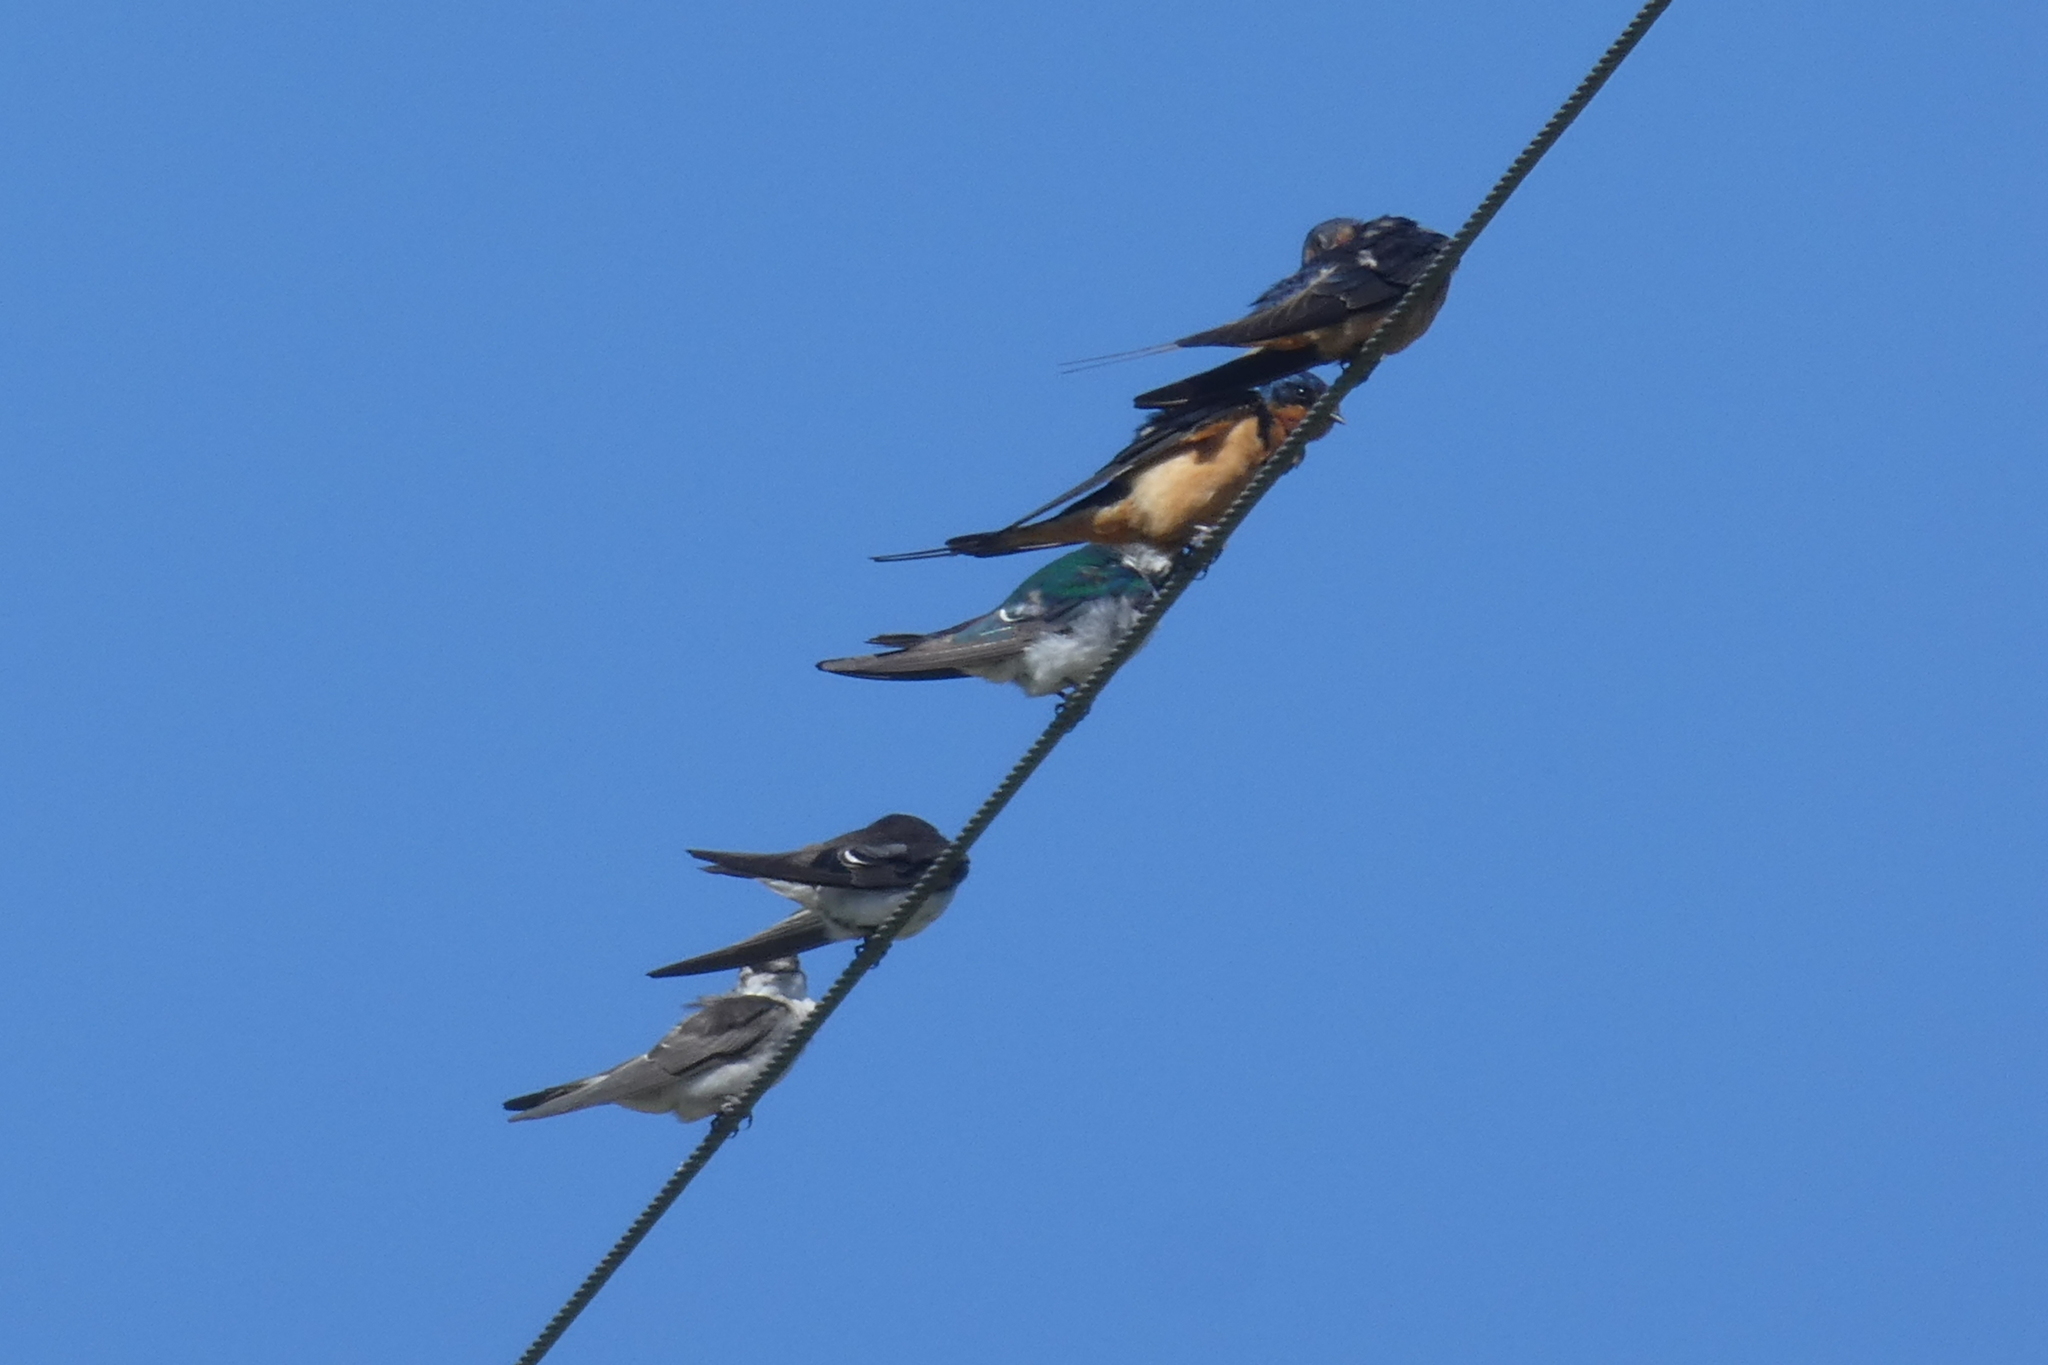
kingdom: Animalia
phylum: Chordata
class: Aves
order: Passeriformes
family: Hirundinidae
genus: Hirundo
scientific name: Hirundo rustica
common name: Barn swallow
